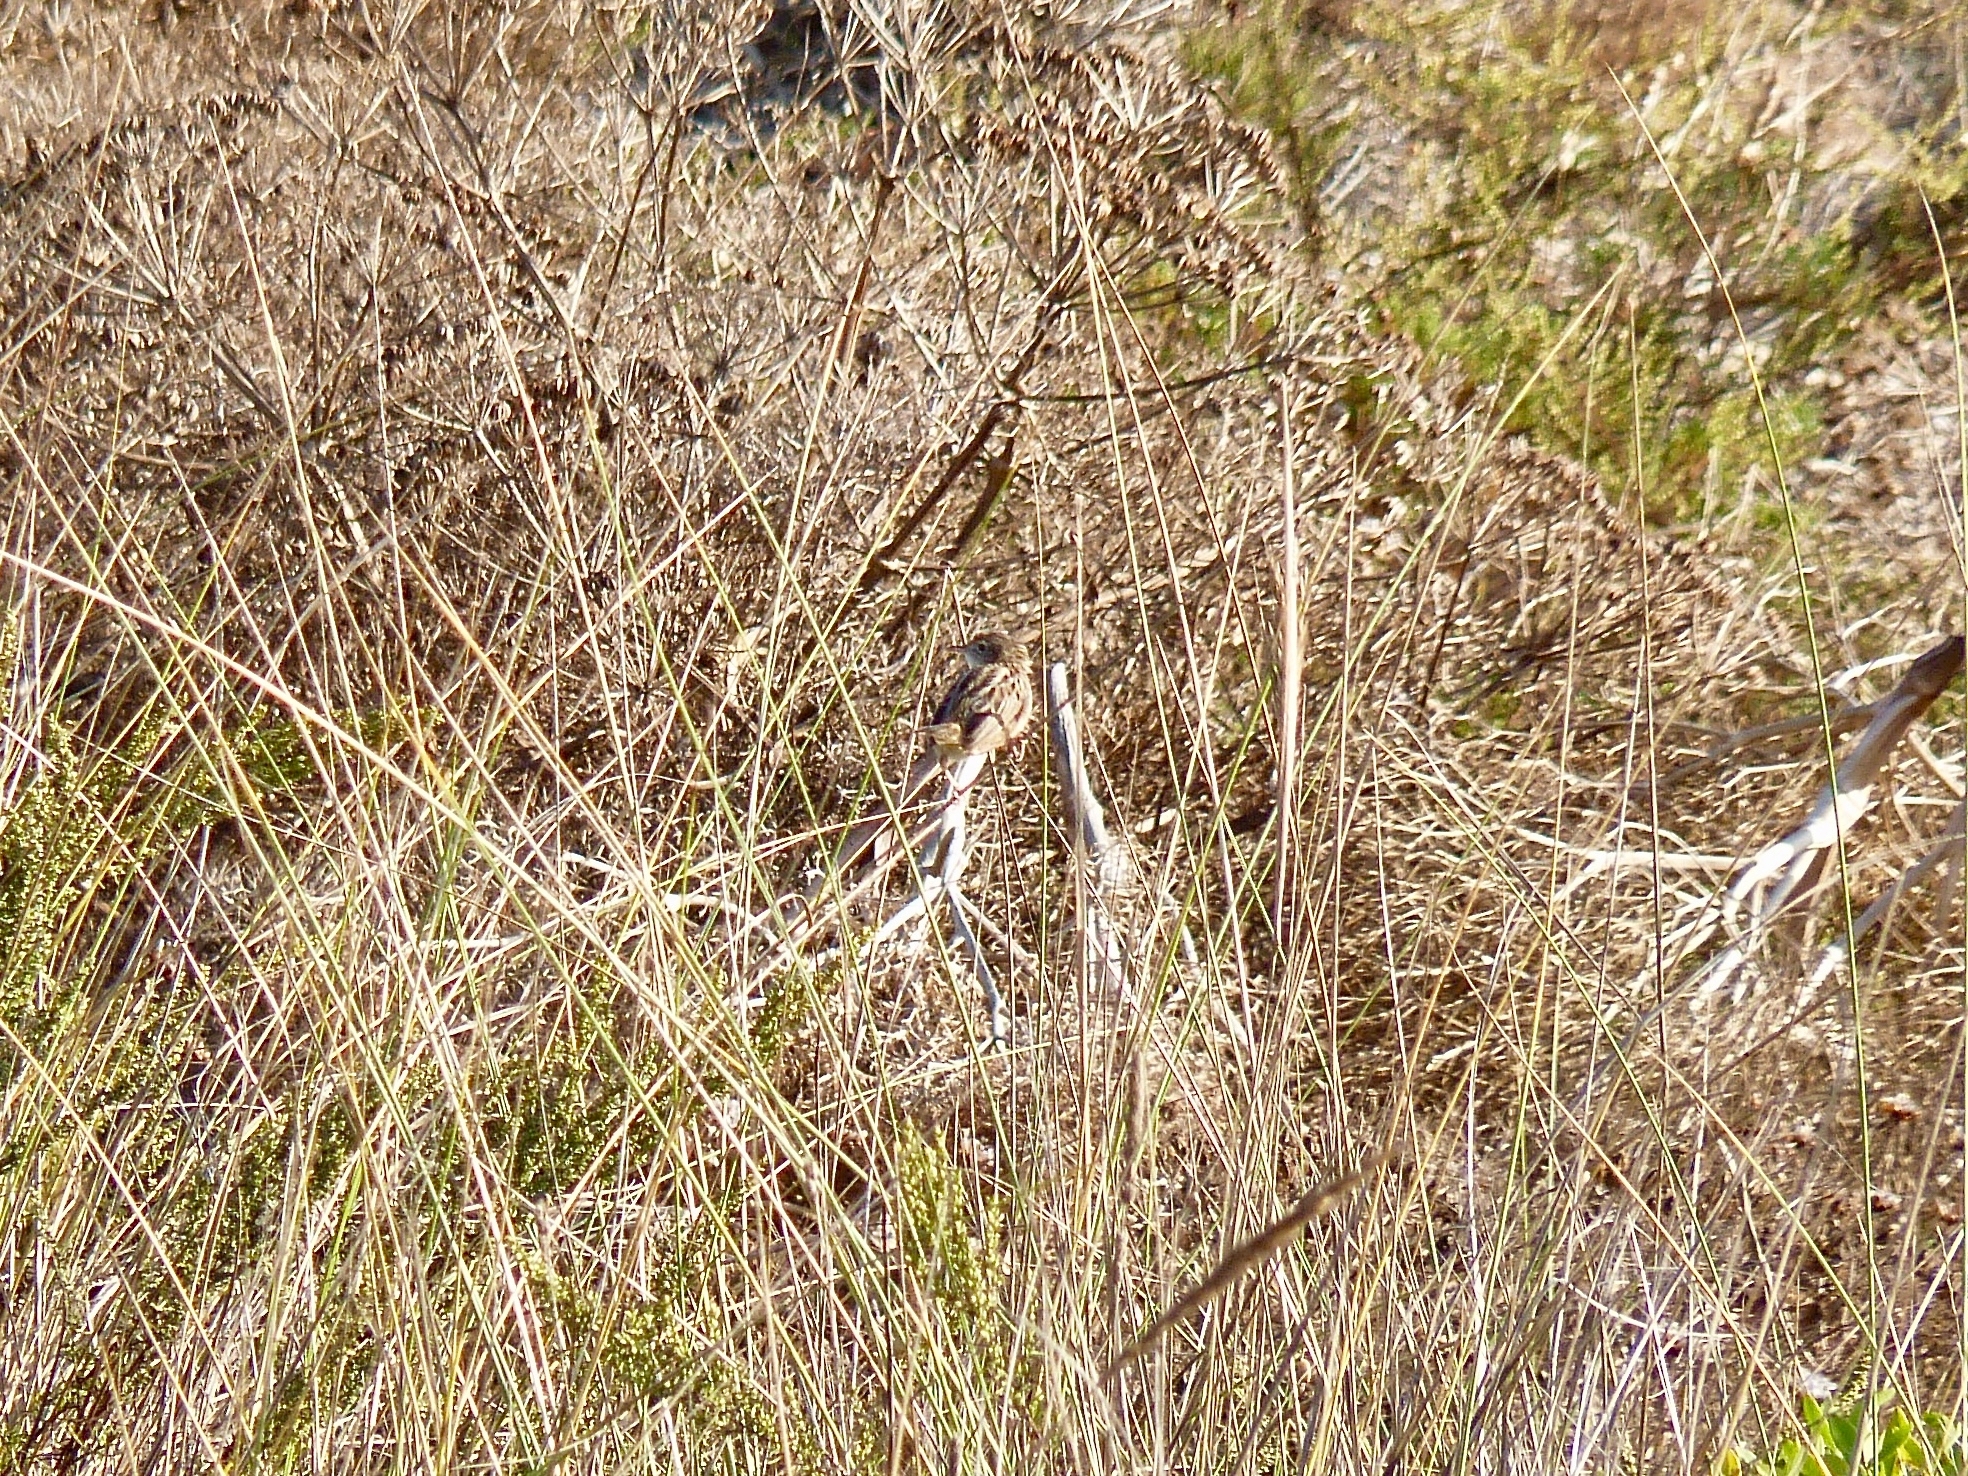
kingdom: Animalia
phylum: Chordata
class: Aves
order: Passeriformes
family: Cisticolidae
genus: Cisticola
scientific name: Cisticola juncidis
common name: Zitting cisticola
